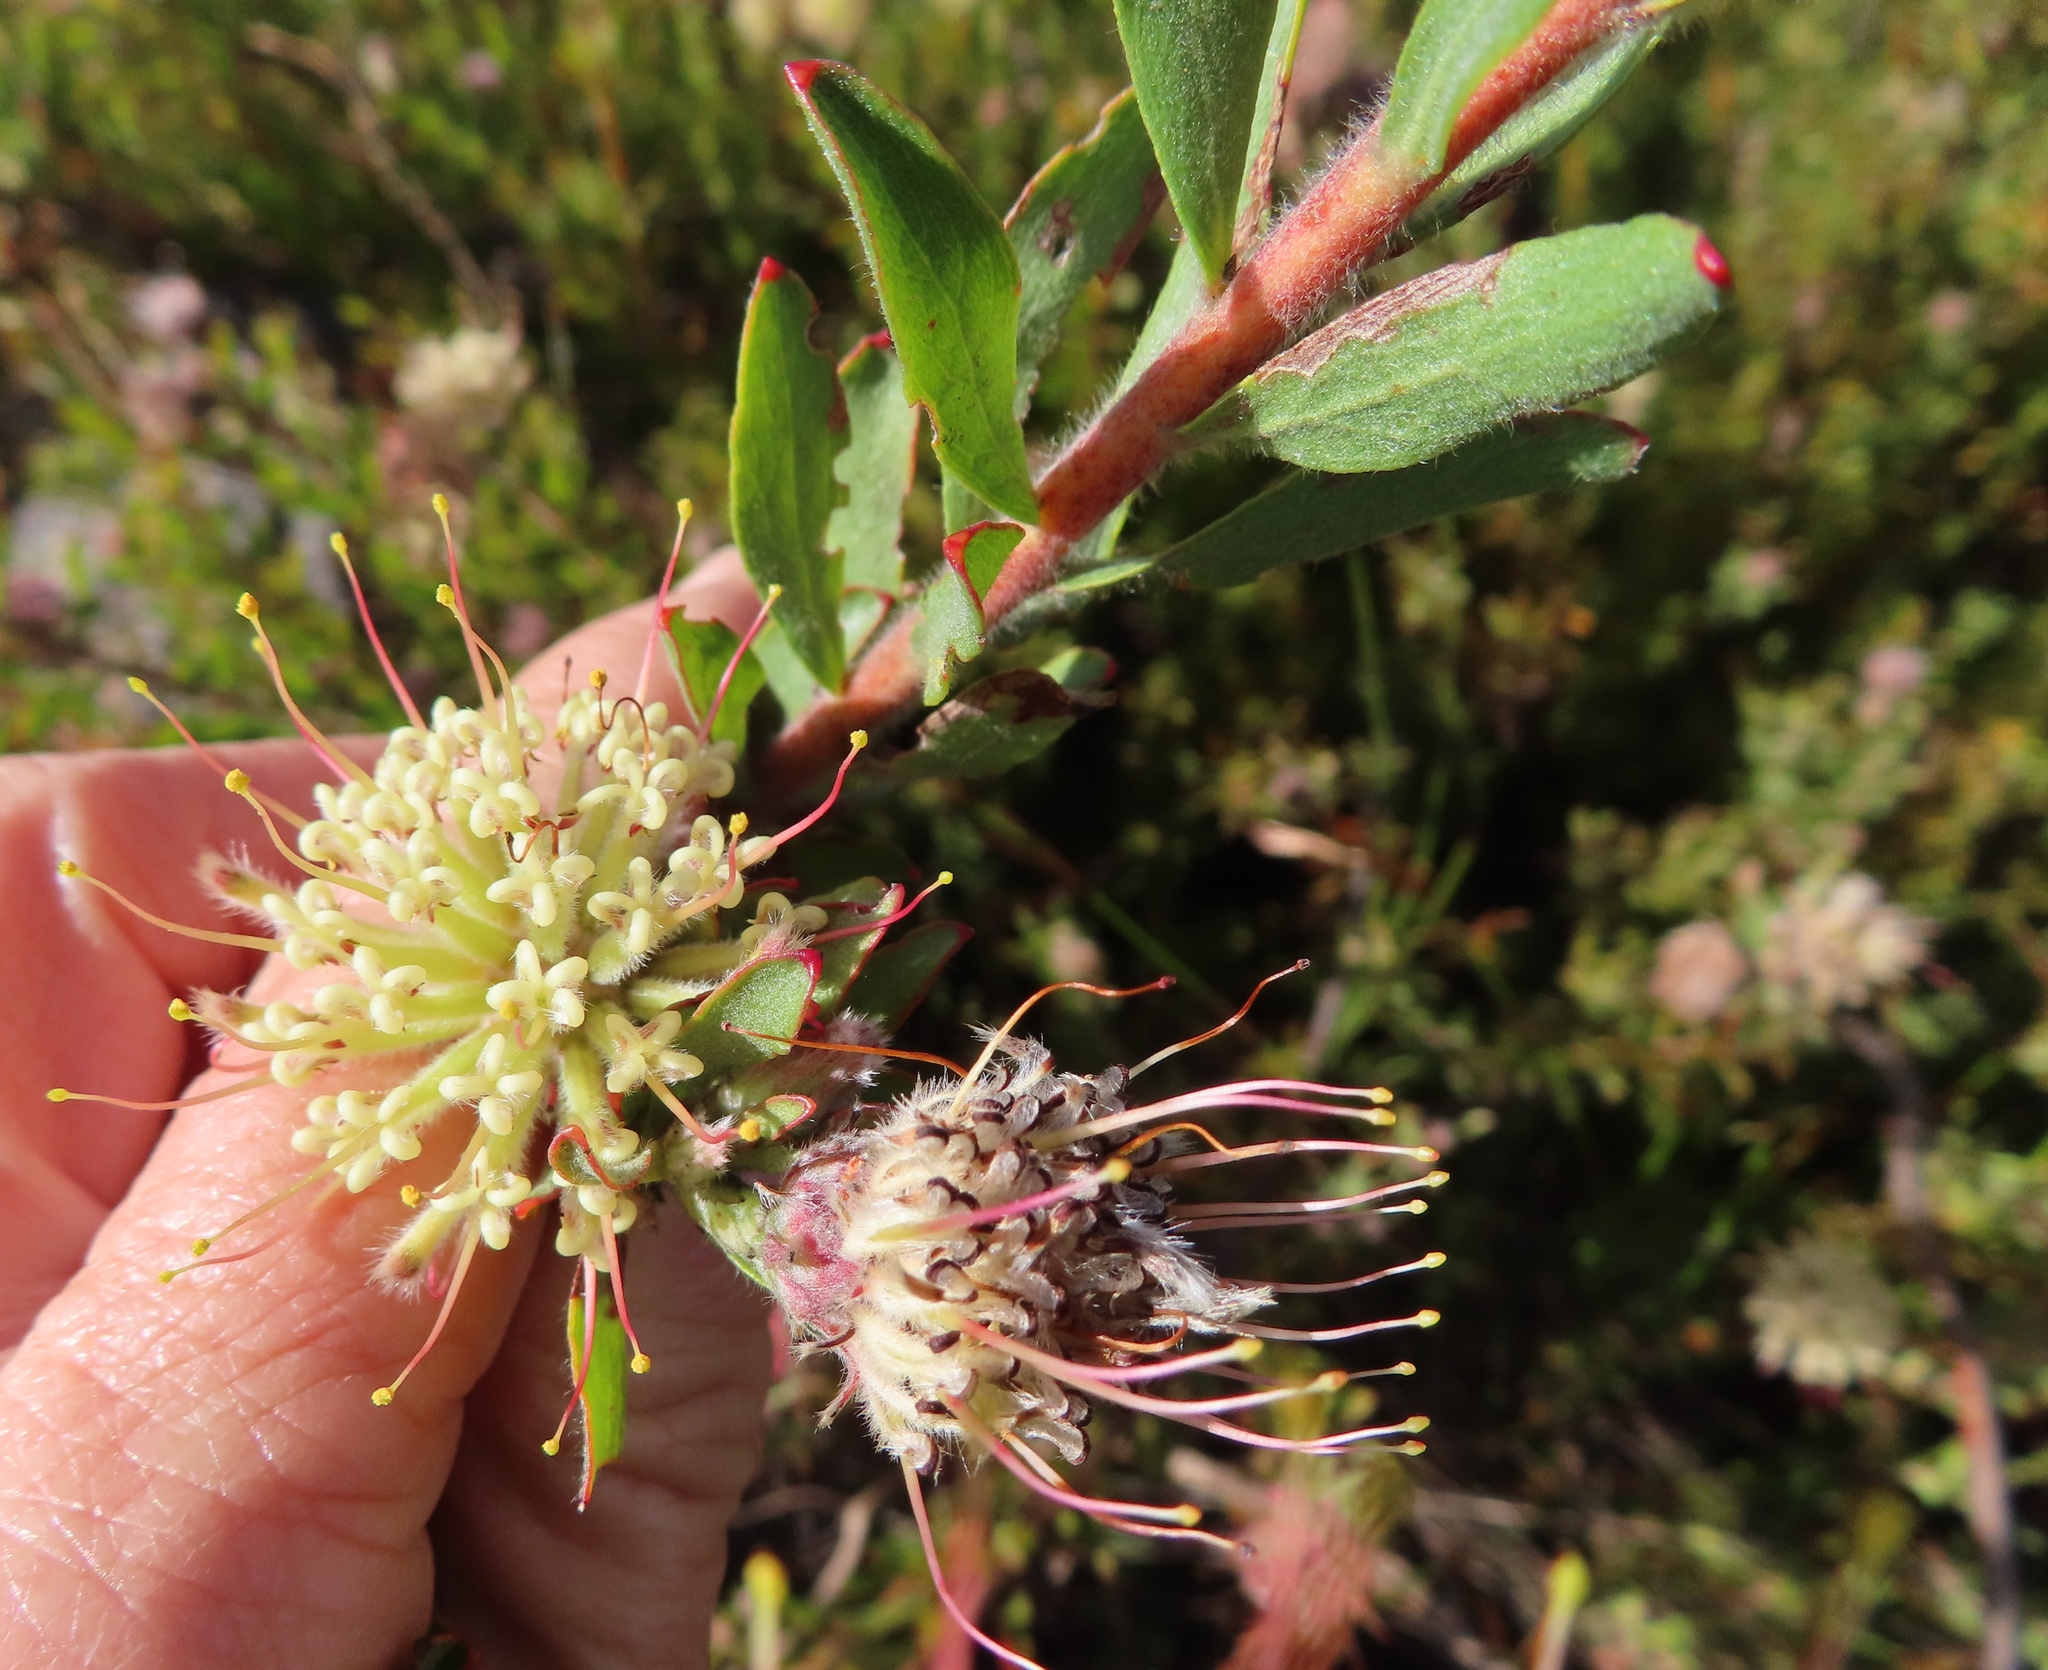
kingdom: Plantae
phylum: Tracheophyta
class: Magnoliopsida
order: Proteales
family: Proteaceae
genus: Leucospermum
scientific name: Leucospermum calligerum
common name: Arid pincushion
